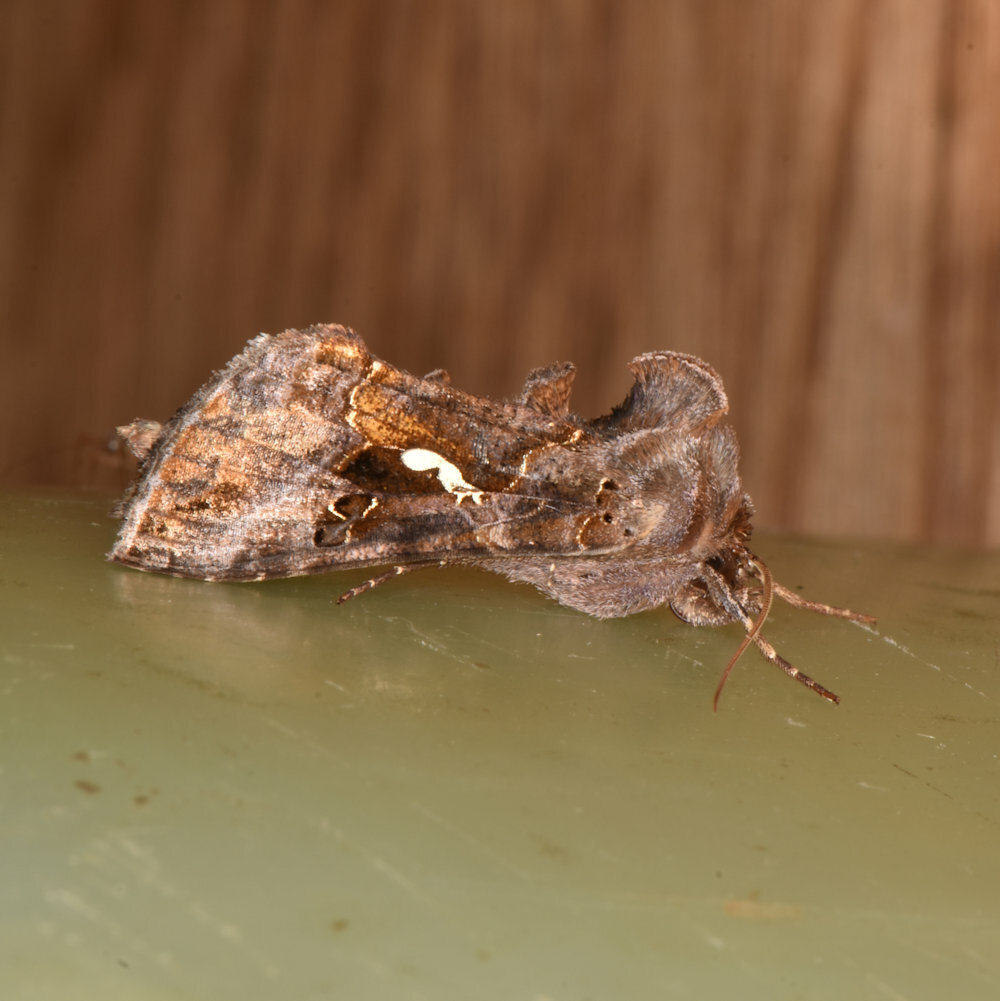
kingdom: Animalia
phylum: Arthropoda
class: Insecta
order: Lepidoptera
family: Noctuidae
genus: Autographa
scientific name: Autographa precationis
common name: Common looper moth
